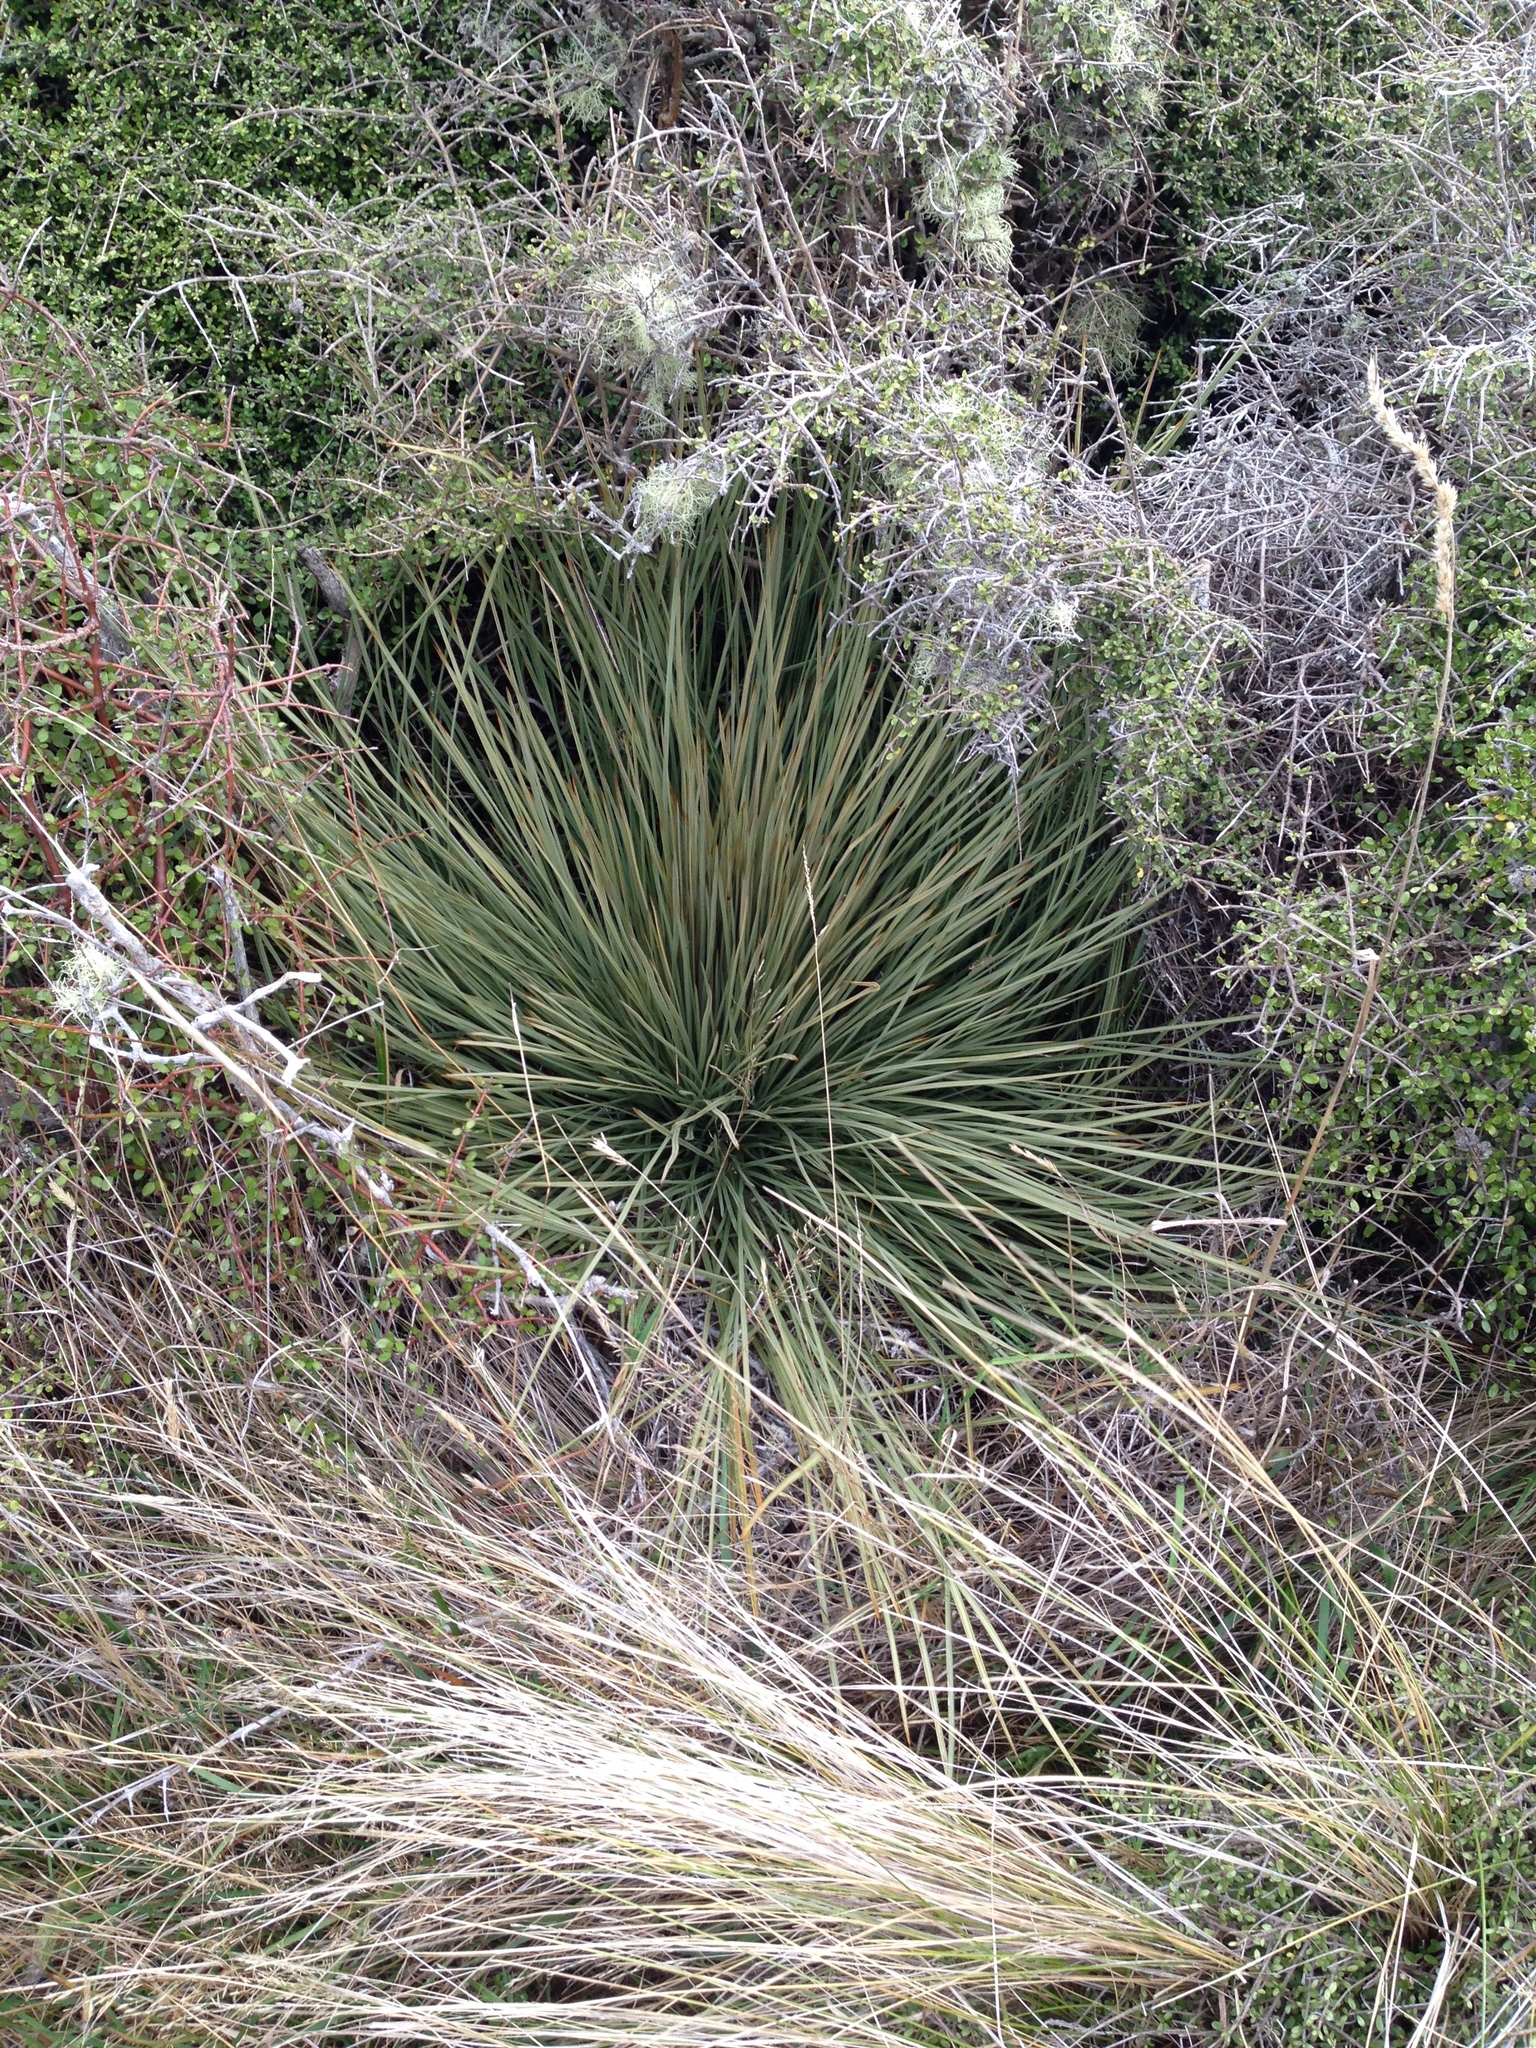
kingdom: Plantae
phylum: Tracheophyta
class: Magnoliopsida
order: Apiales
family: Apiaceae
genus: Aciphylla
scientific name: Aciphylla subflabellata
